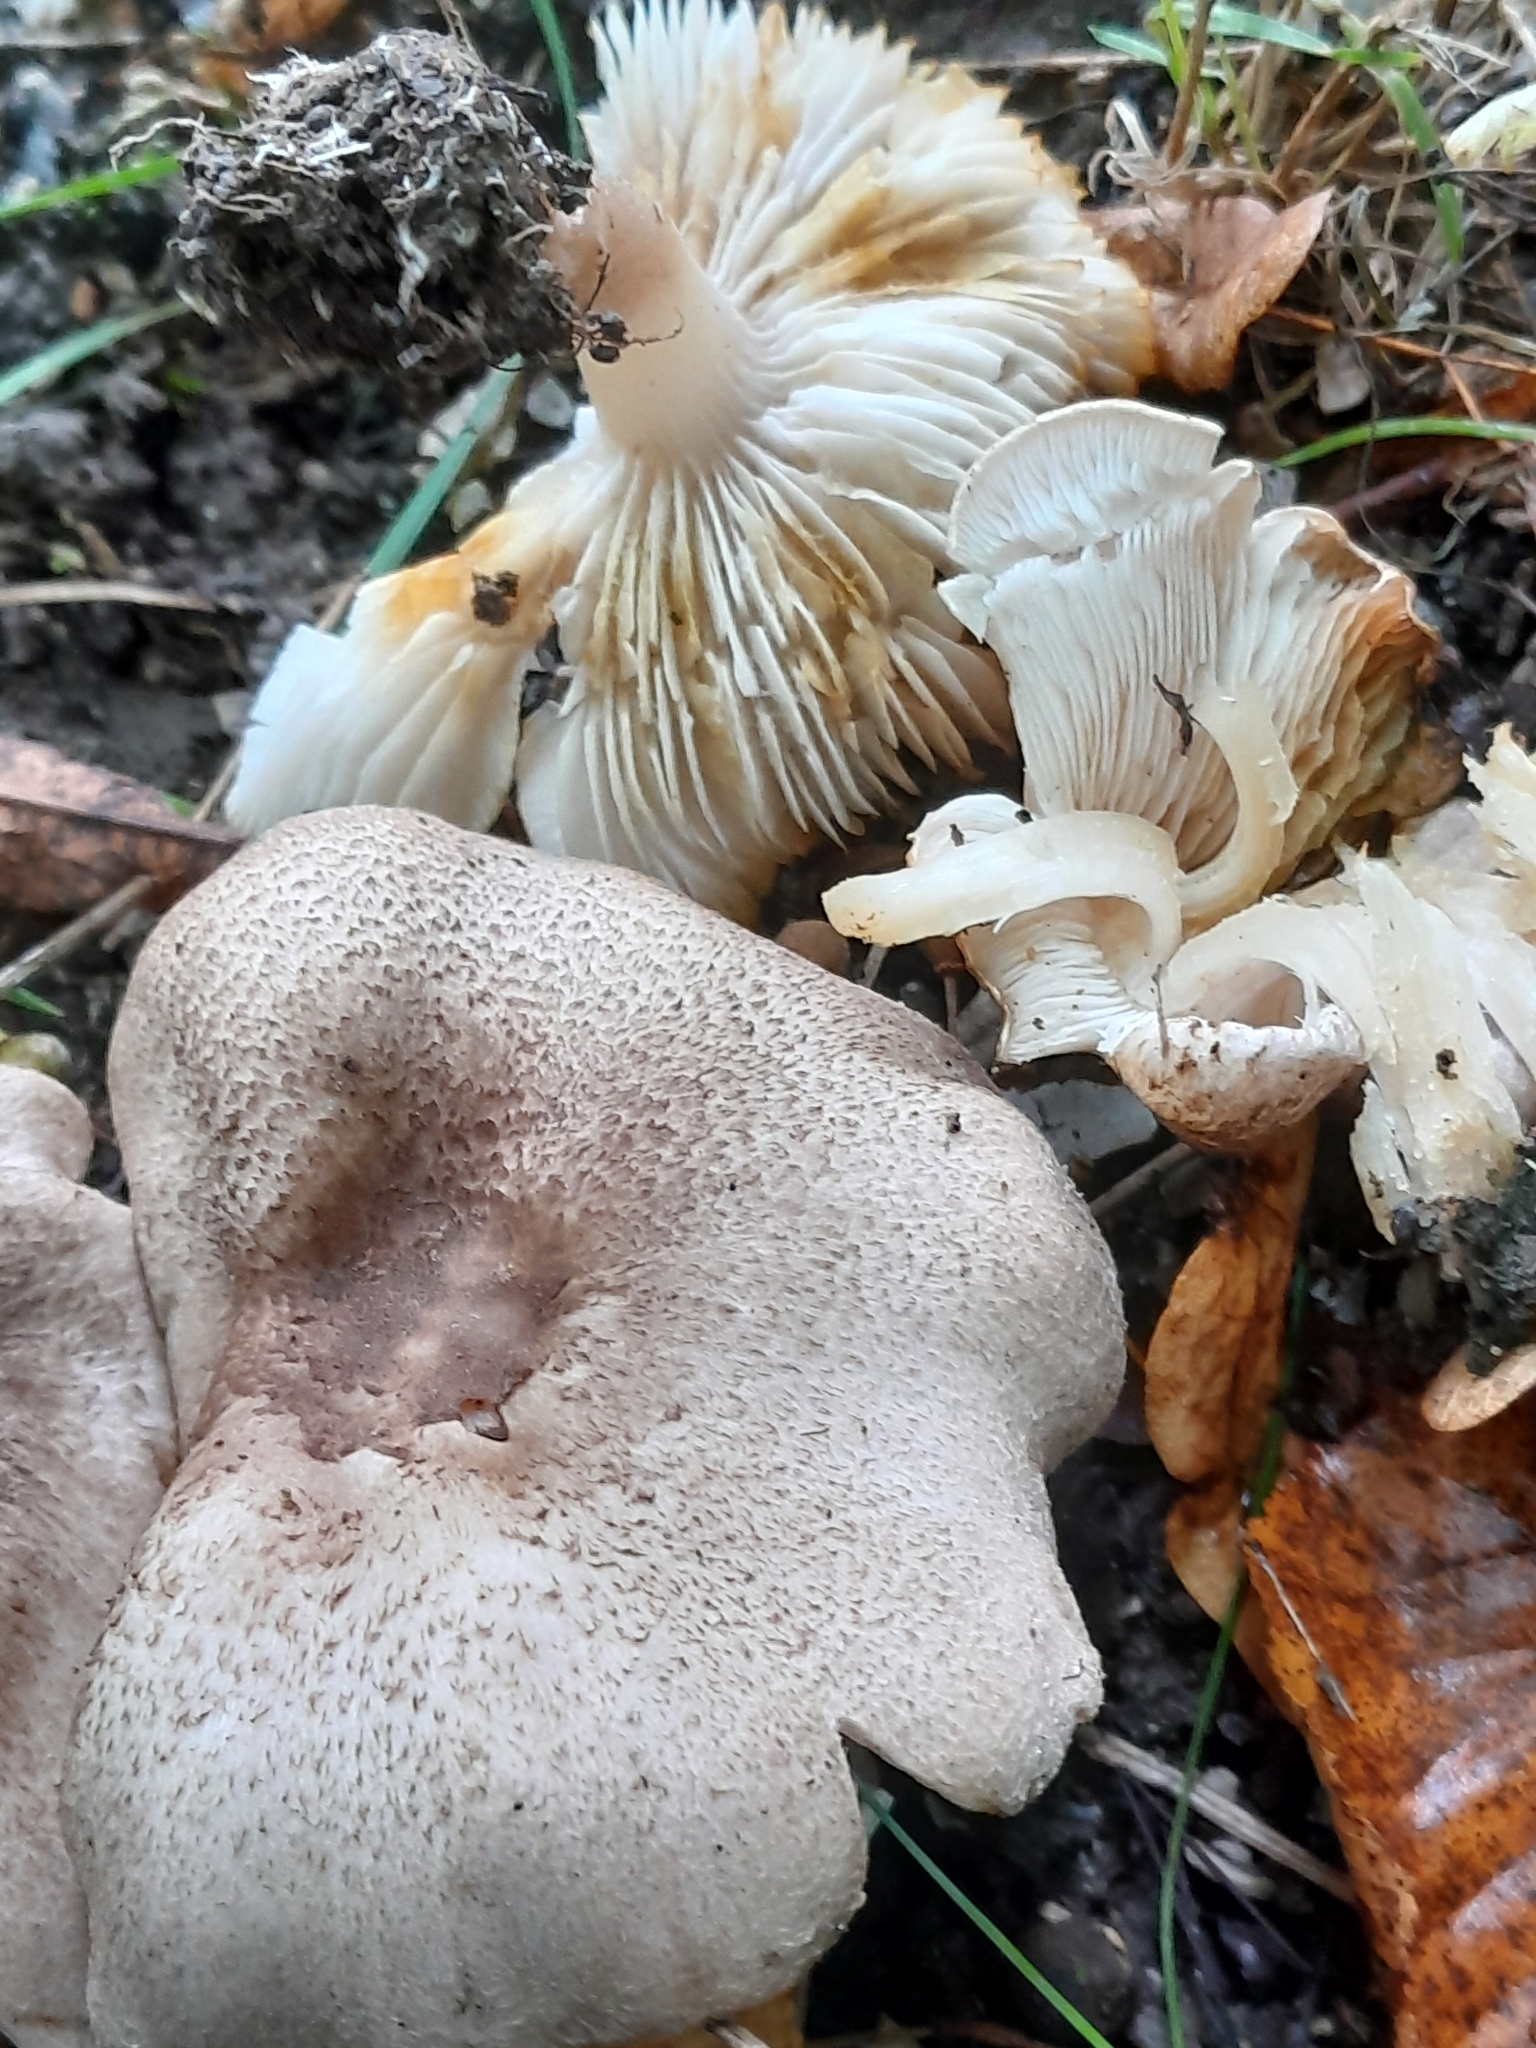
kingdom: Fungi
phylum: Basidiomycota
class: Agaricomycetes
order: Agaricales
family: Tricholomataceae
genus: Tricholoma
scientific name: Tricholoma scalpturatum
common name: Yellowing knight
